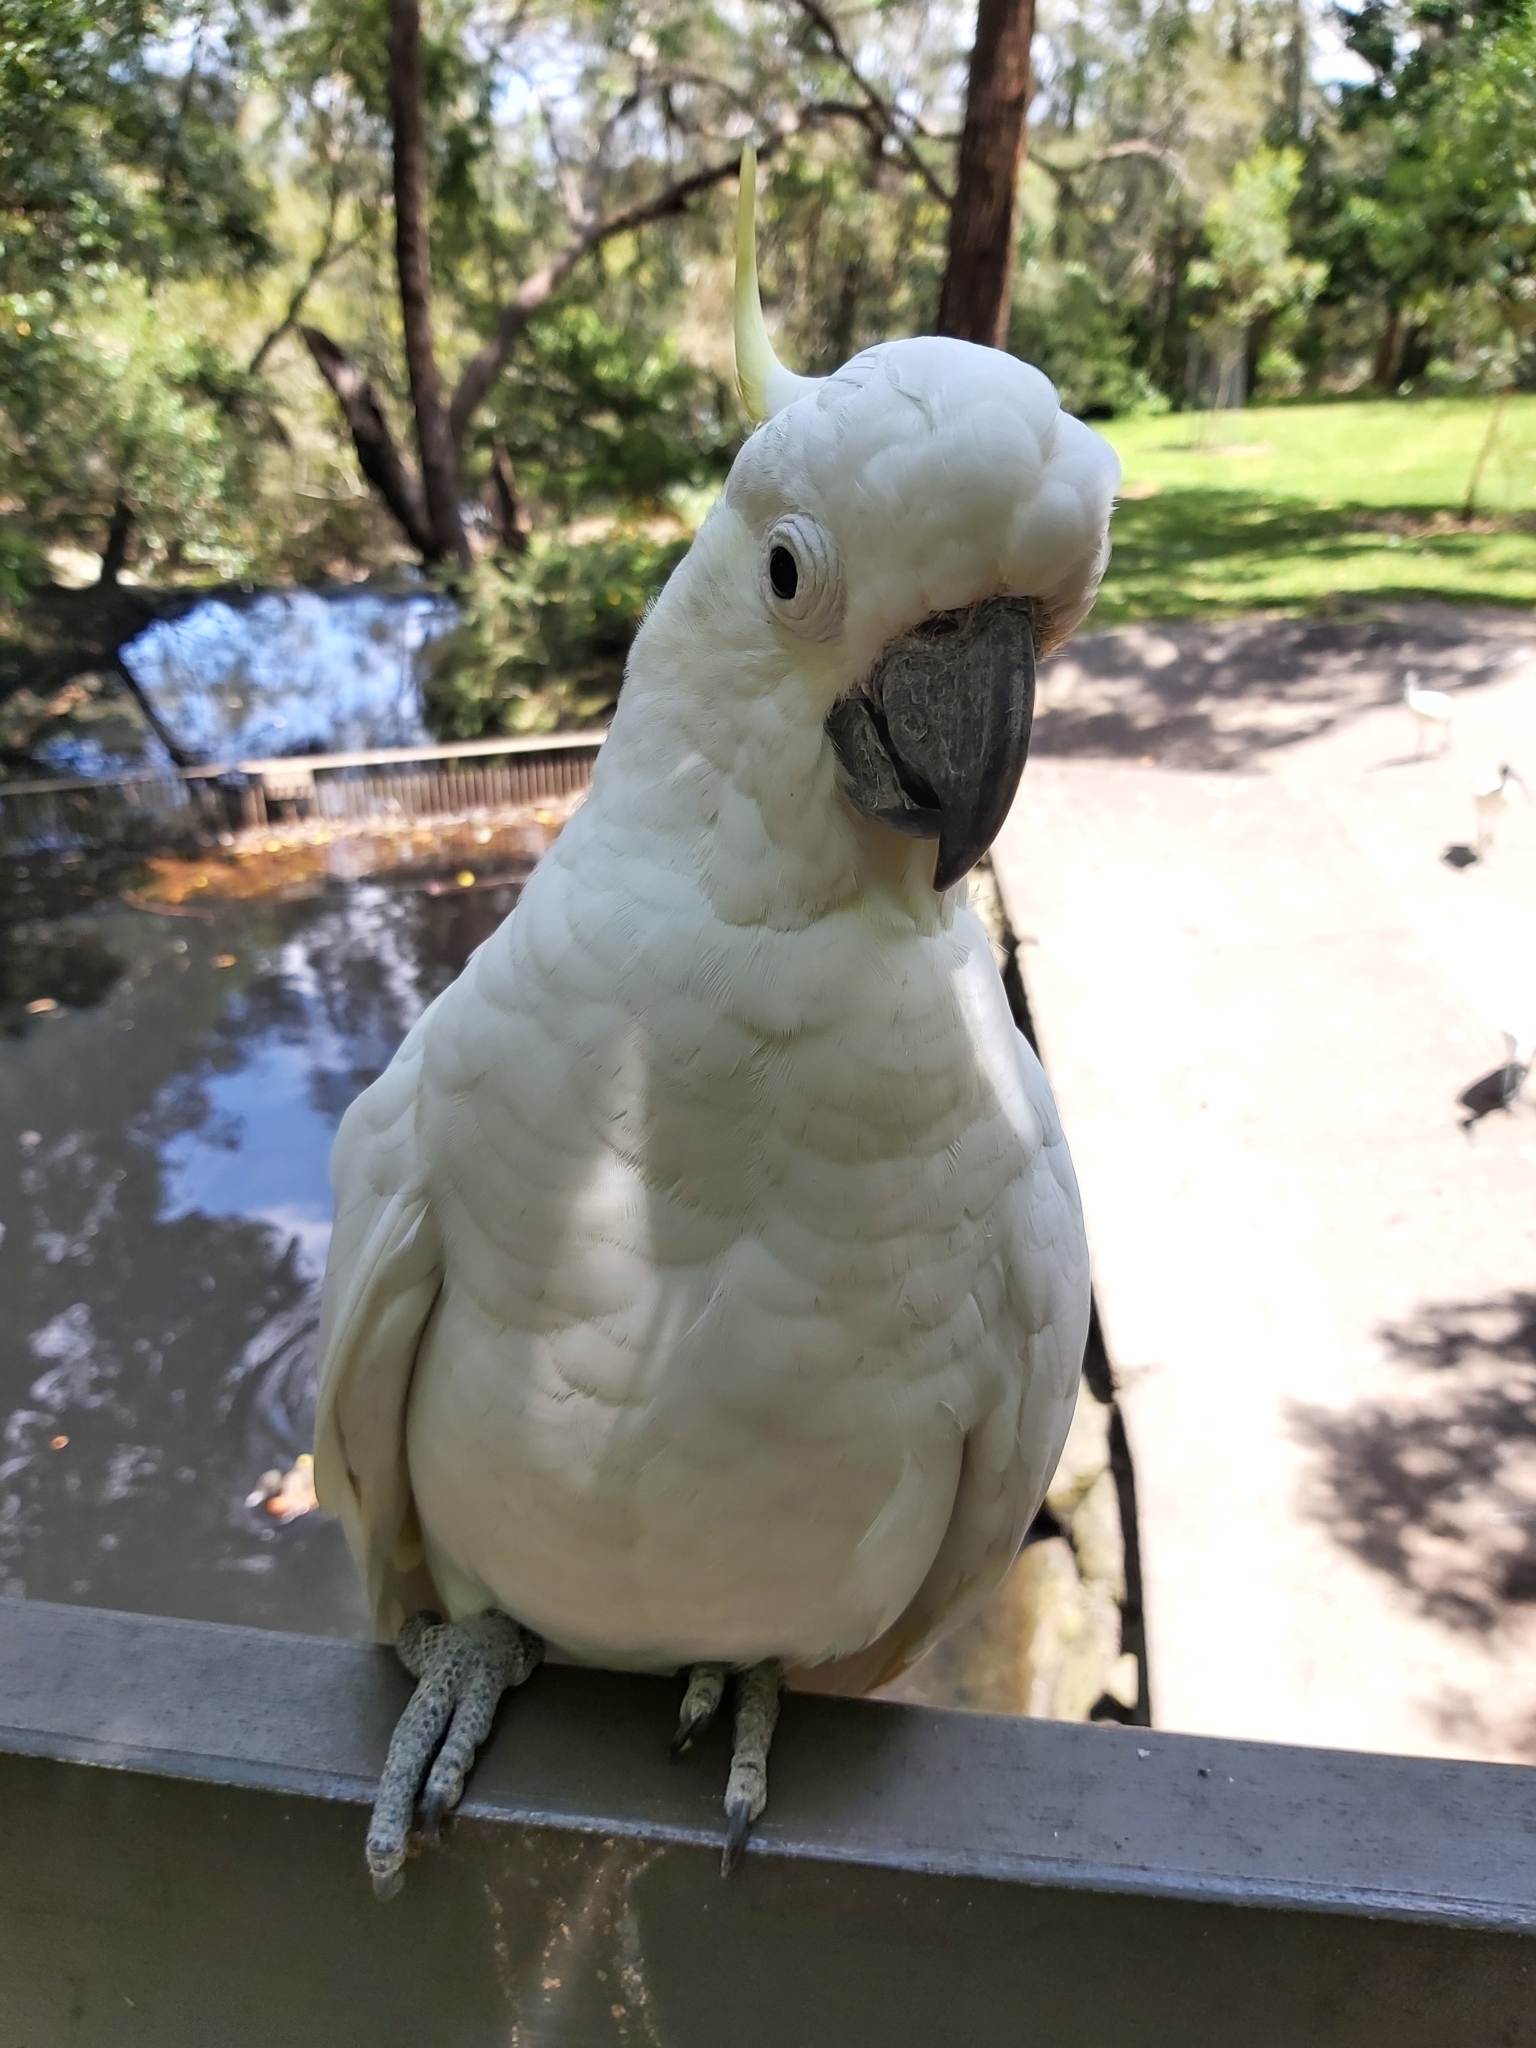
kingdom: Animalia
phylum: Chordata
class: Aves
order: Psittaciformes
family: Psittacidae
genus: Cacatua
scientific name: Cacatua galerita
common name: Sulphur-crested cockatoo
